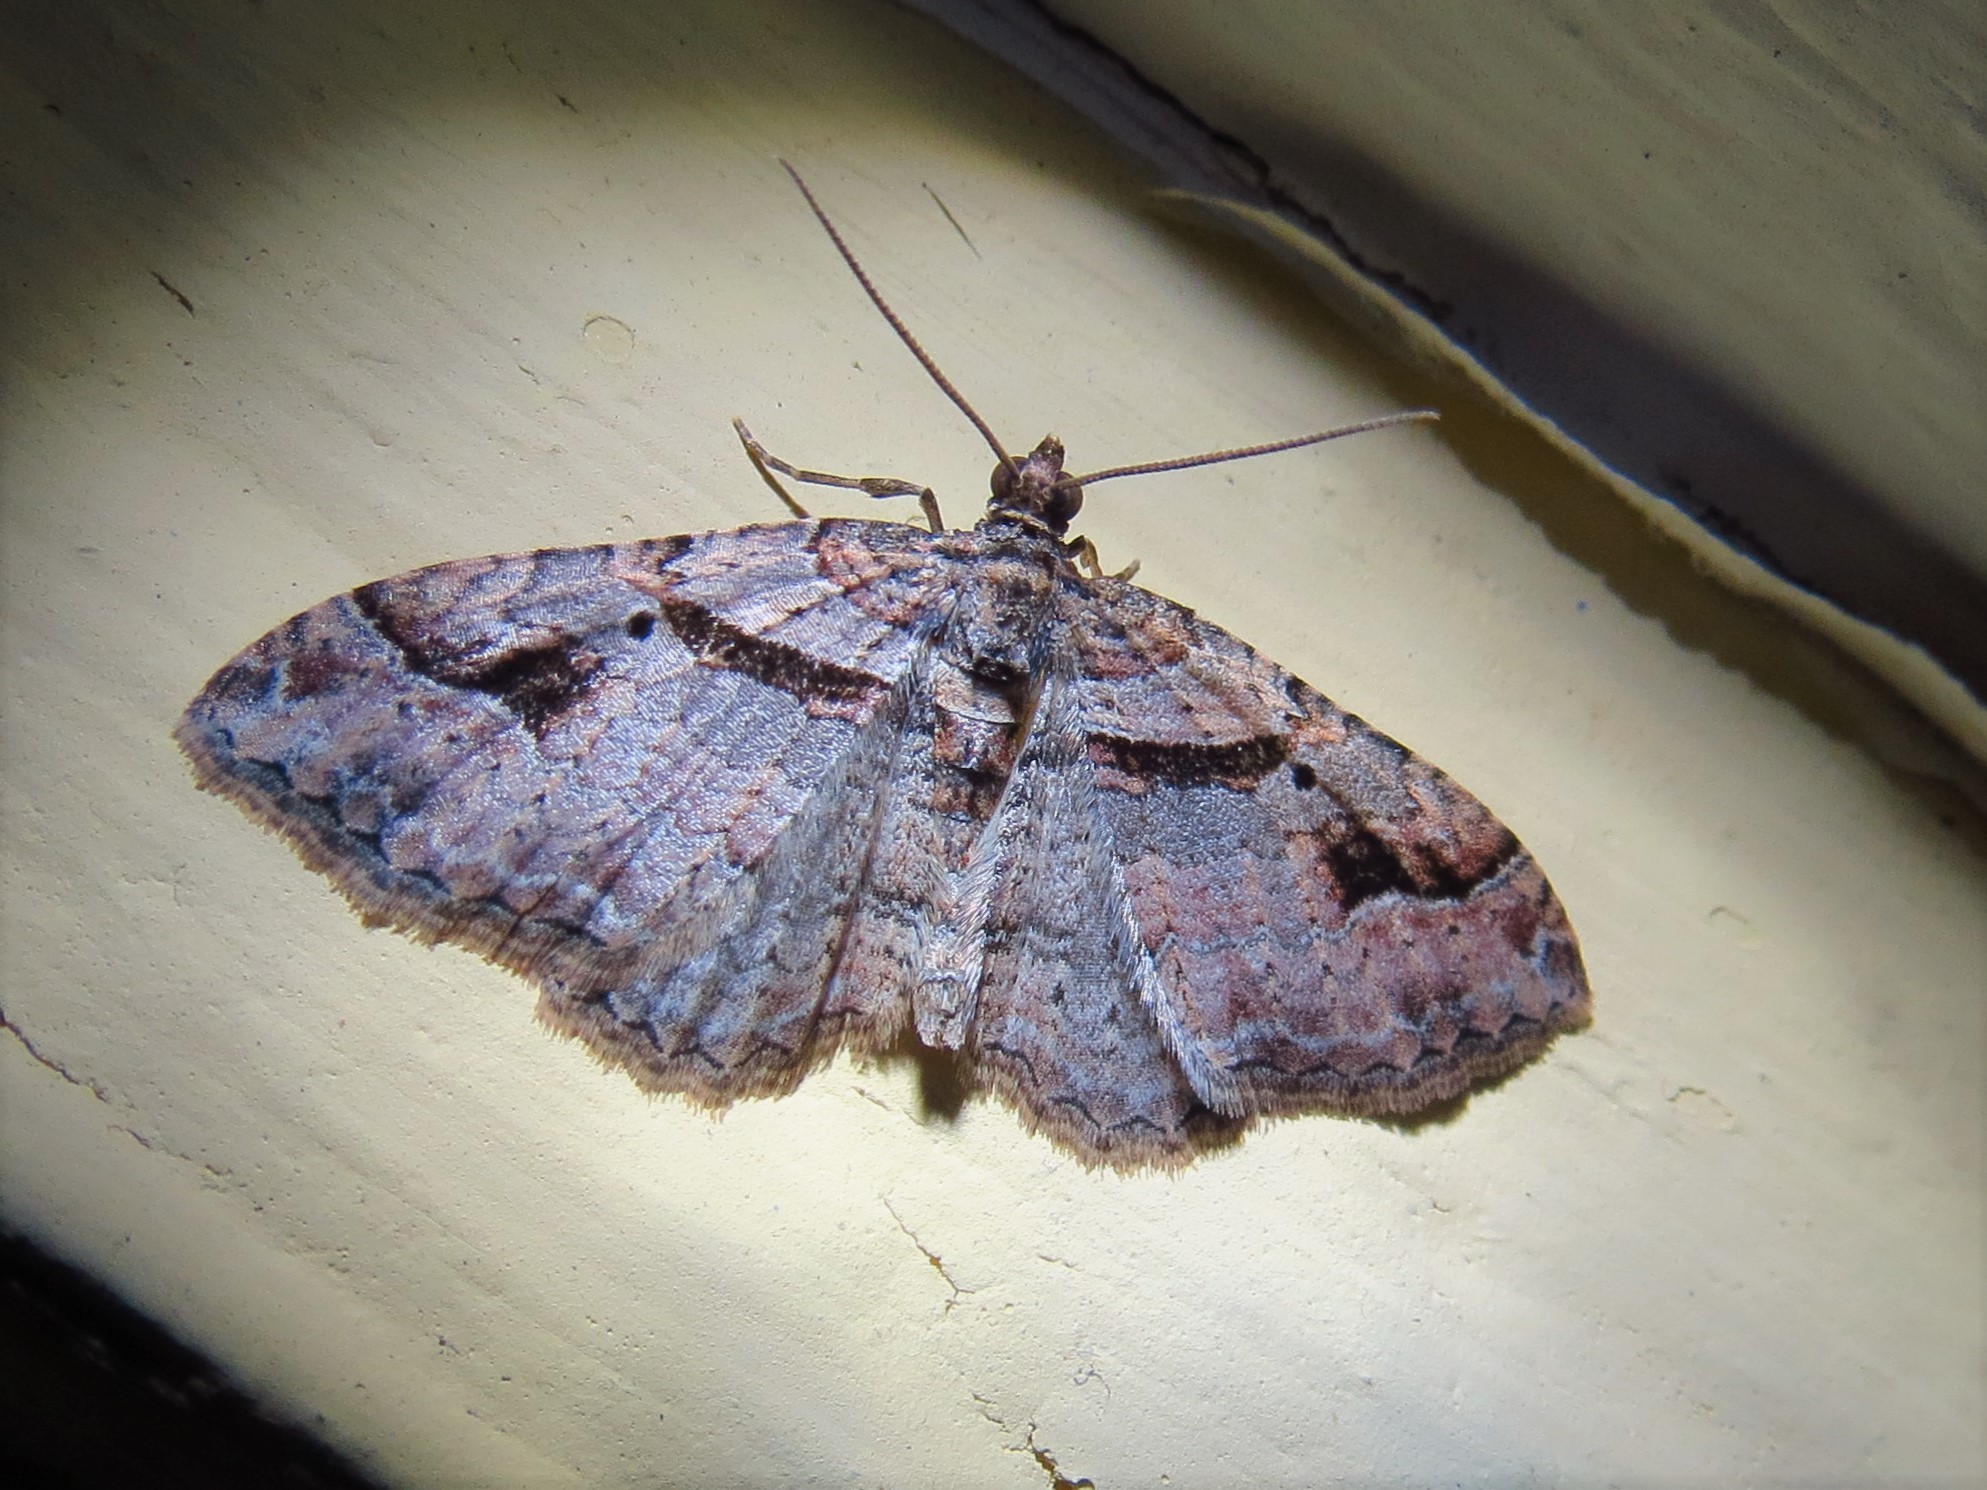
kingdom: Animalia
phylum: Arthropoda
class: Insecta
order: Lepidoptera
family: Geometridae
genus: Costaconvexa
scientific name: Costaconvexa centrostrigaria
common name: Bent-line carpet
